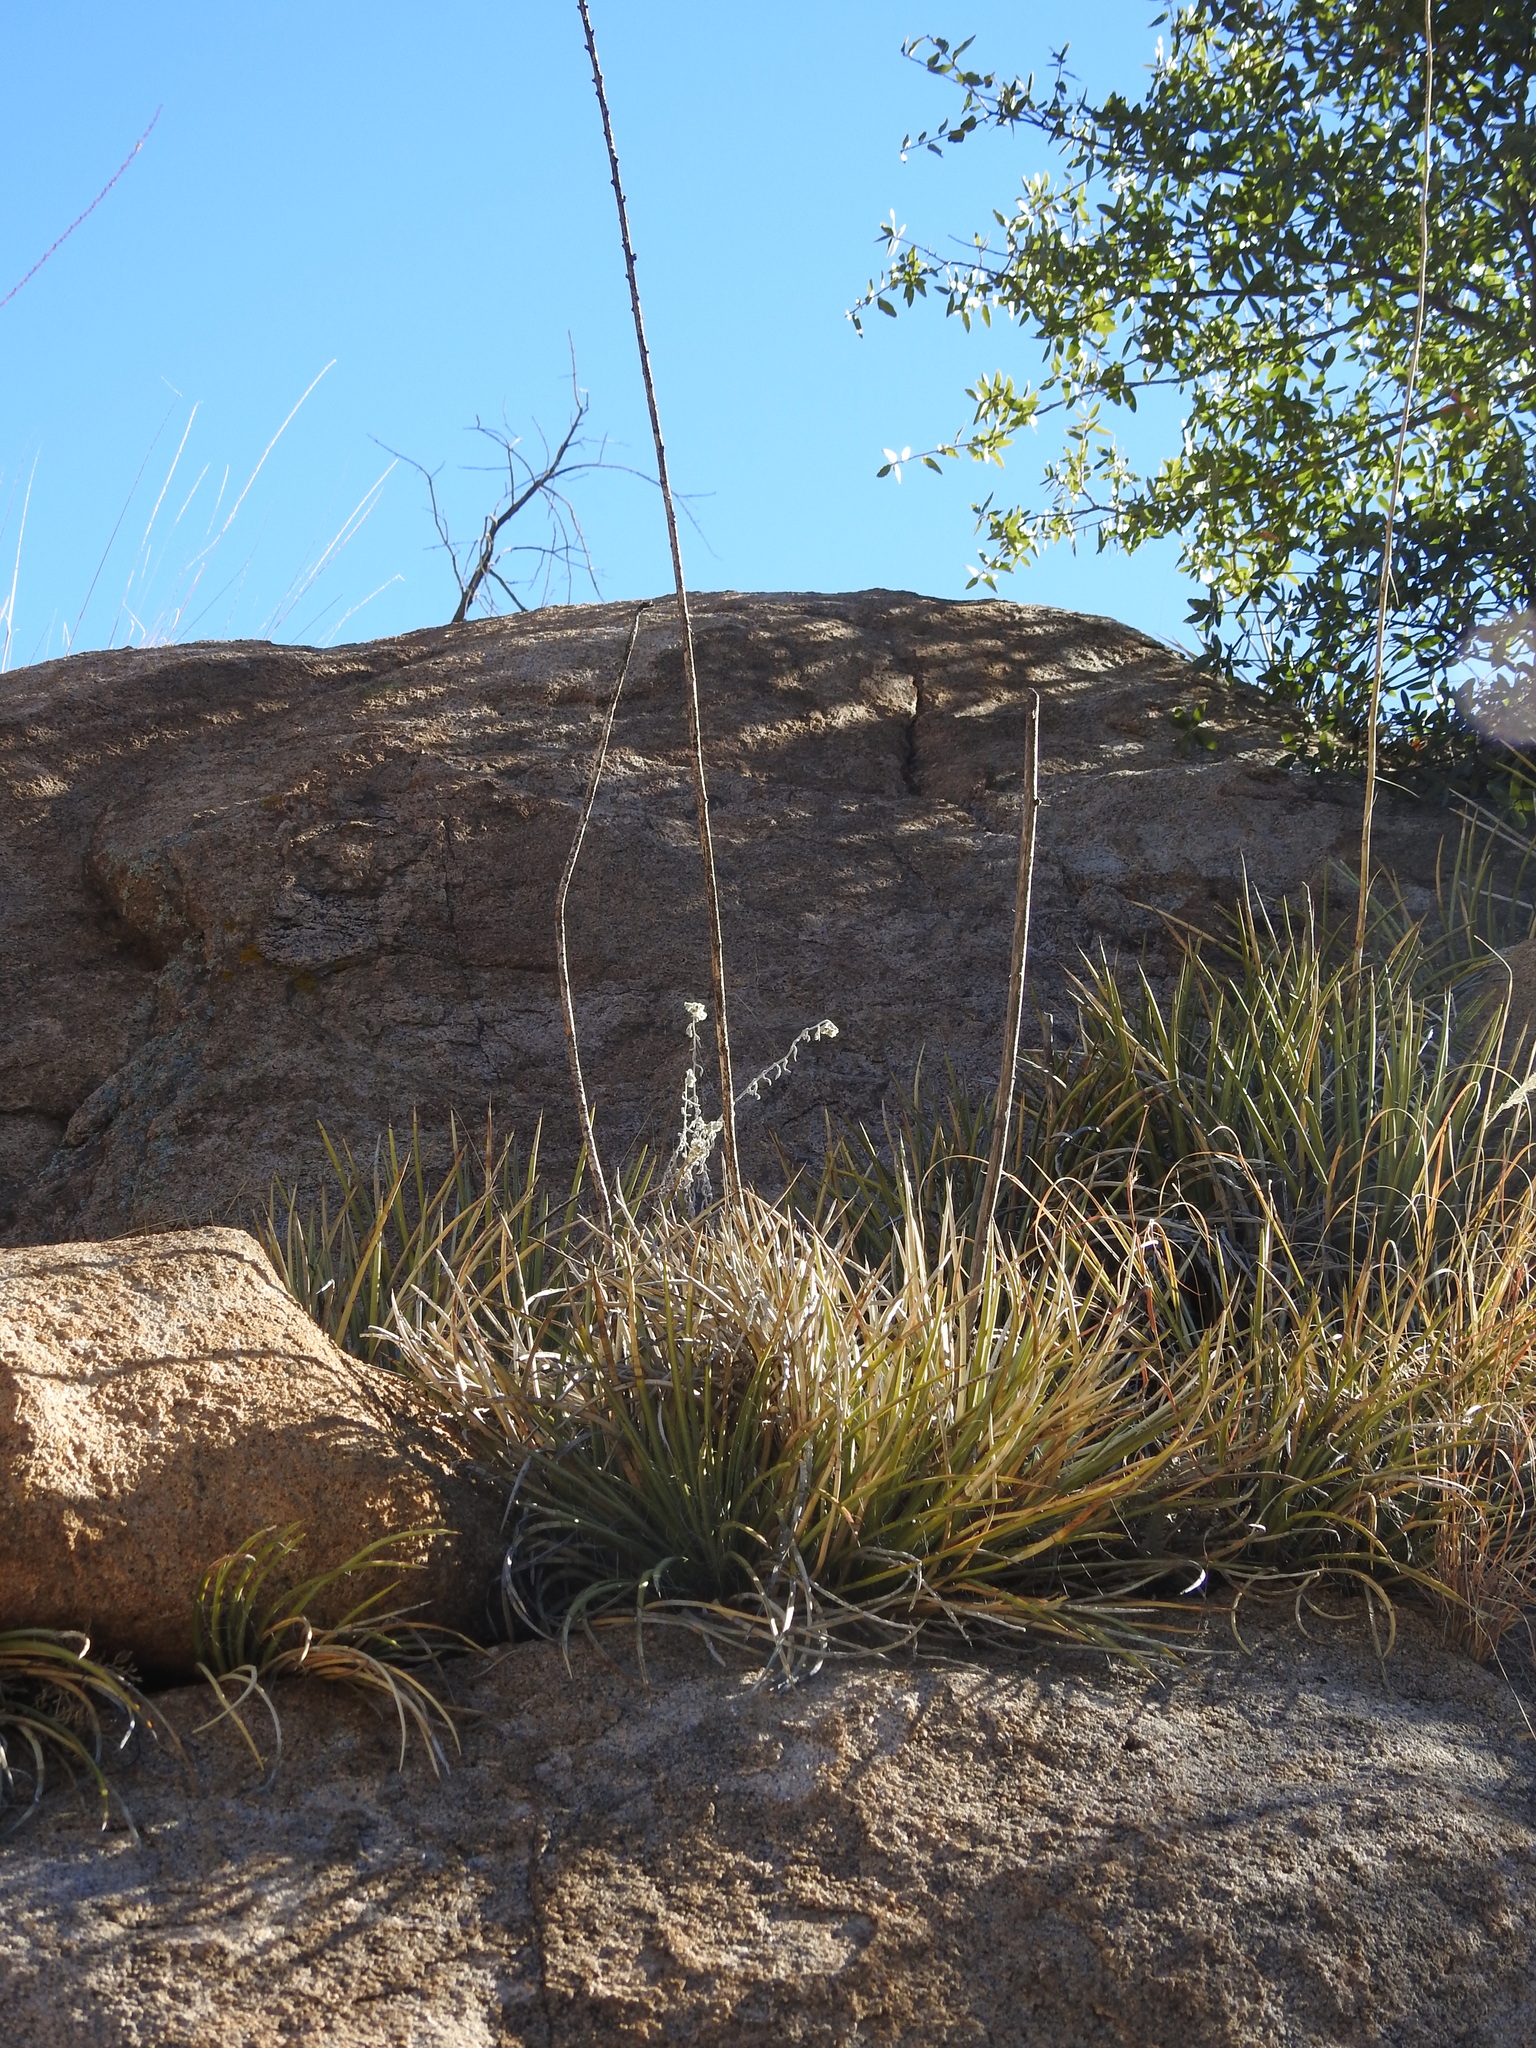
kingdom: Plantae
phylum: Tracheophyta
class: Liliopsida
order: Asparagales
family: Asparagaceae
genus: Agave
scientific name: Agave schottii
